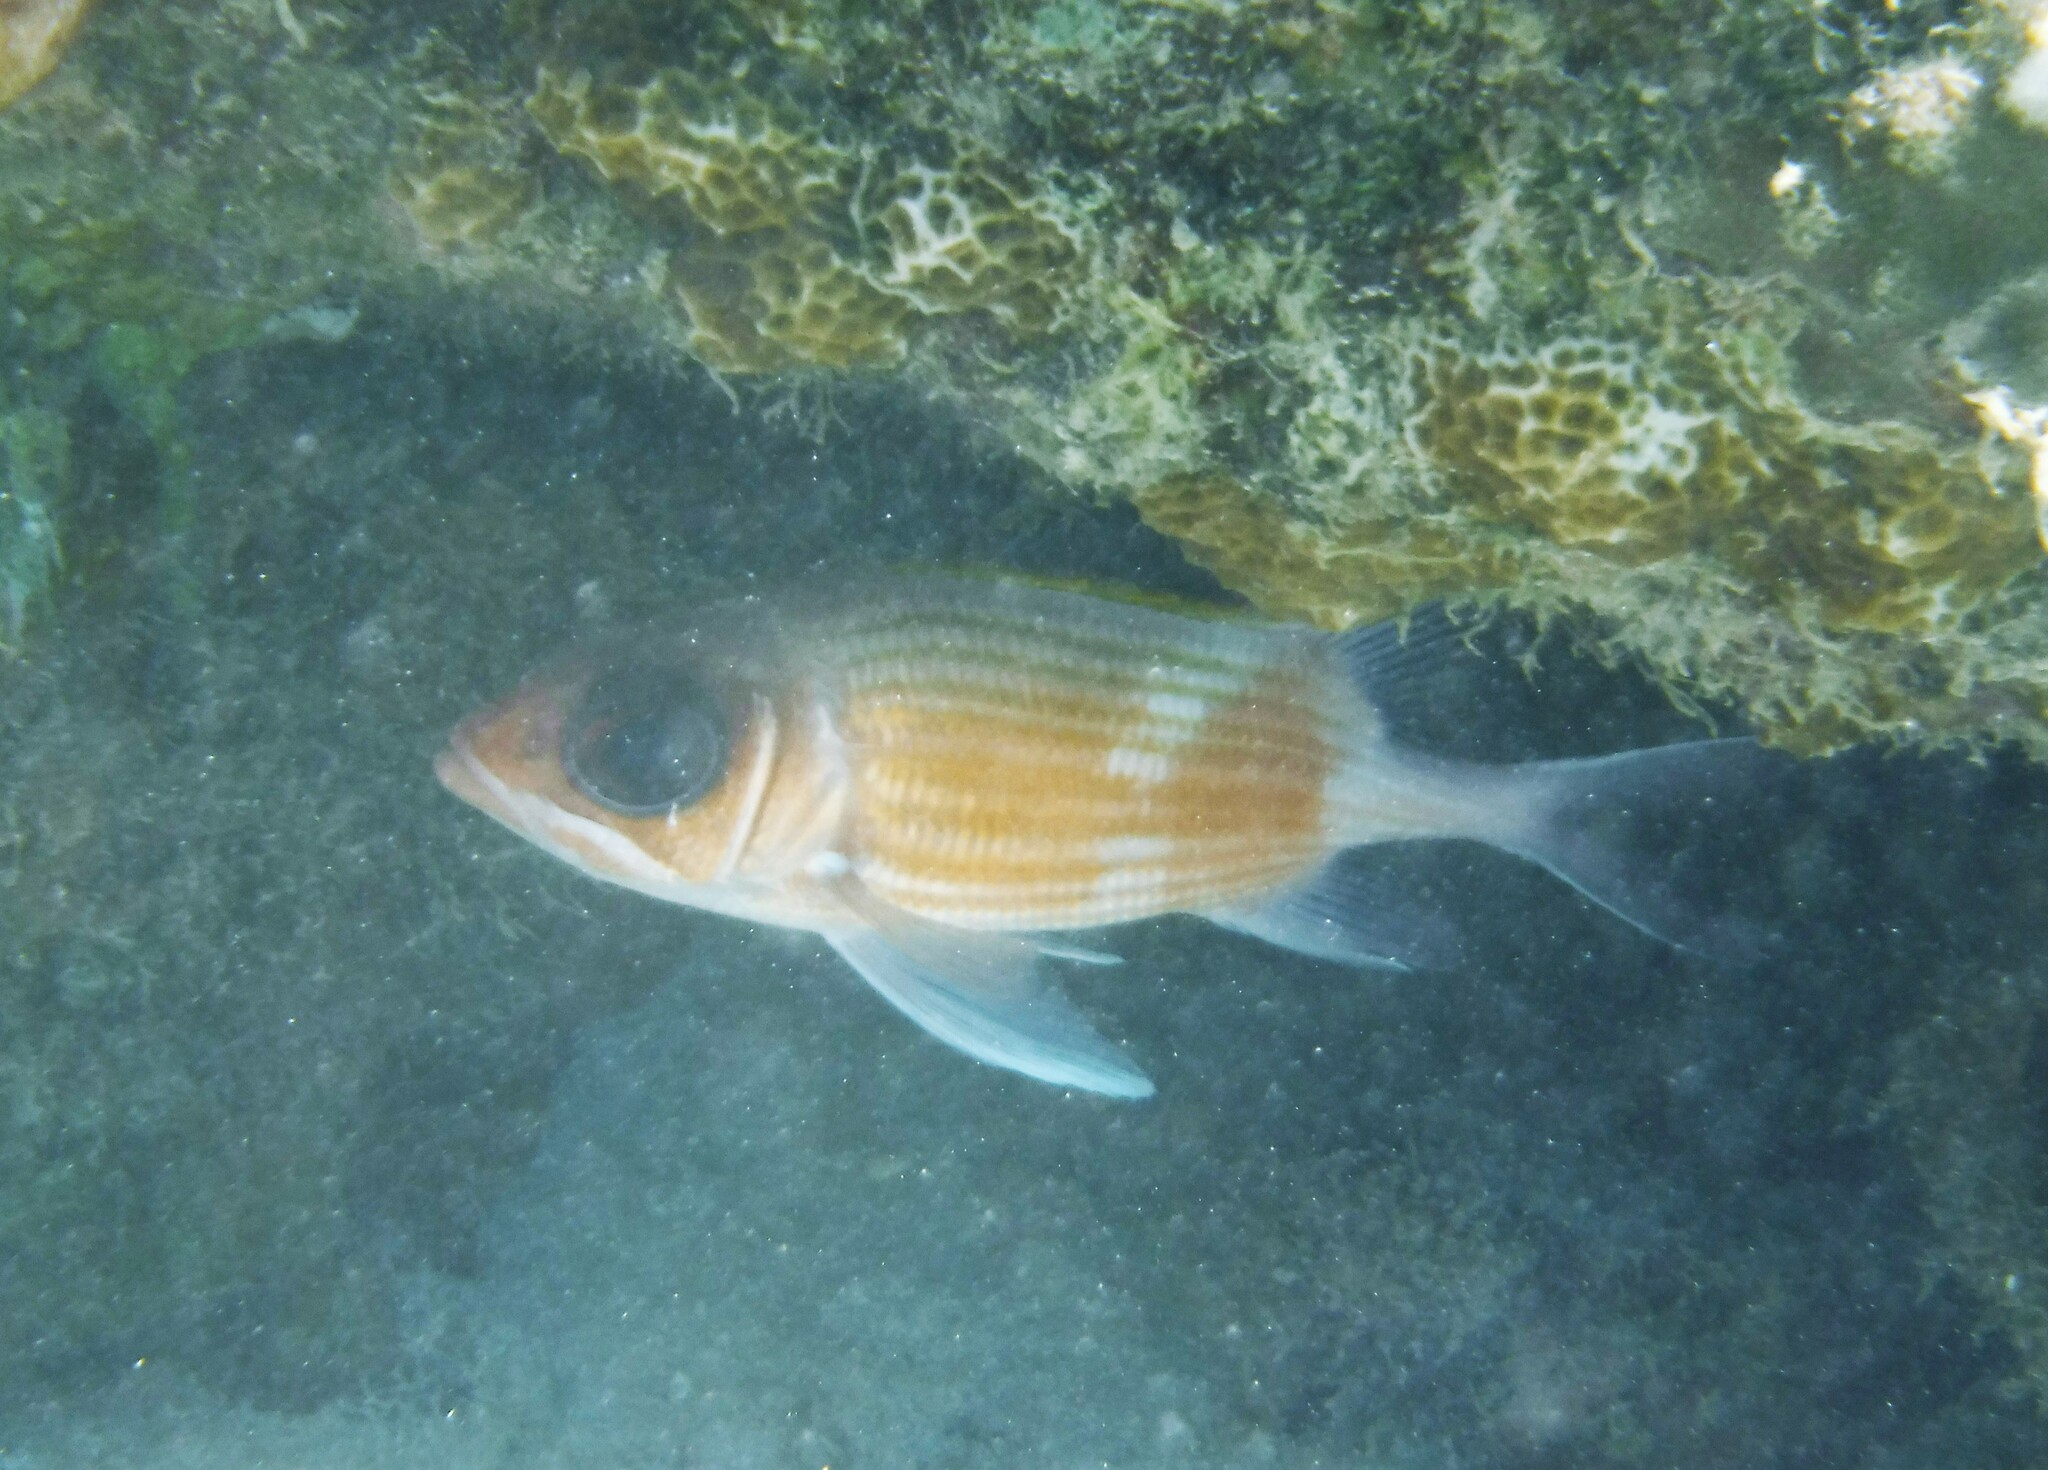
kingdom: Animalia
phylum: Chordata
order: Beryciformes
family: Holocentridae
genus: Holocentrus
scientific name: Holocentrus adscensionis
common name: Squirrelfish
